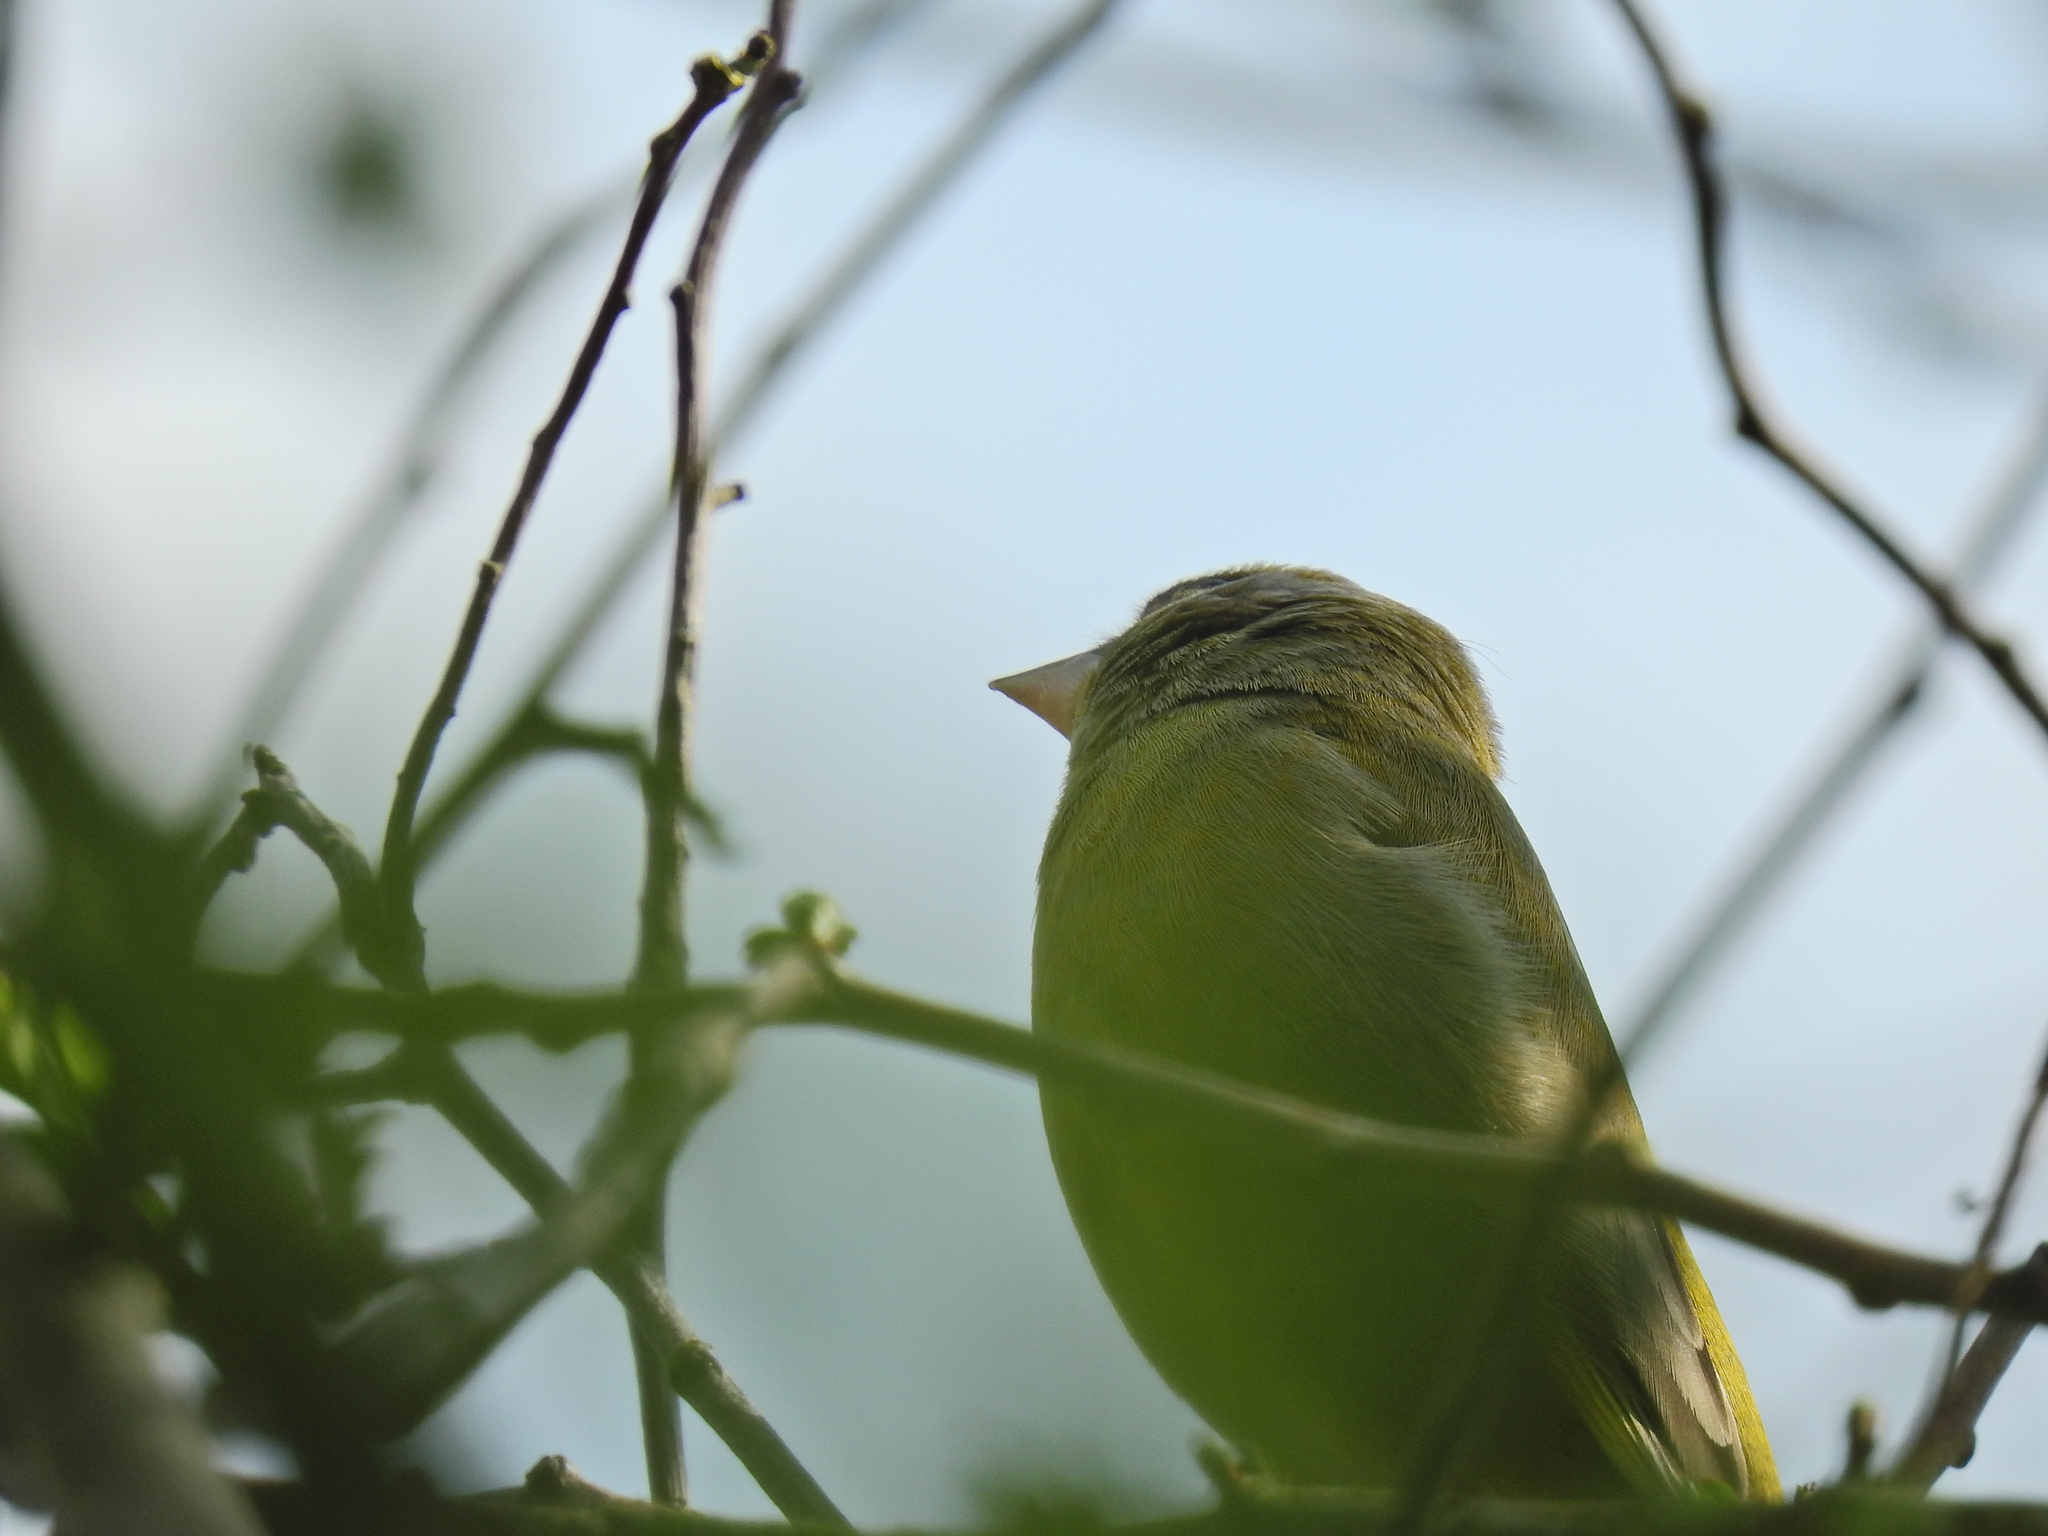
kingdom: Plantae
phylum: Tracheophyta
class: Liliopsida
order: Poales
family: Poaceae
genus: Chloris
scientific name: Chloris chloris
